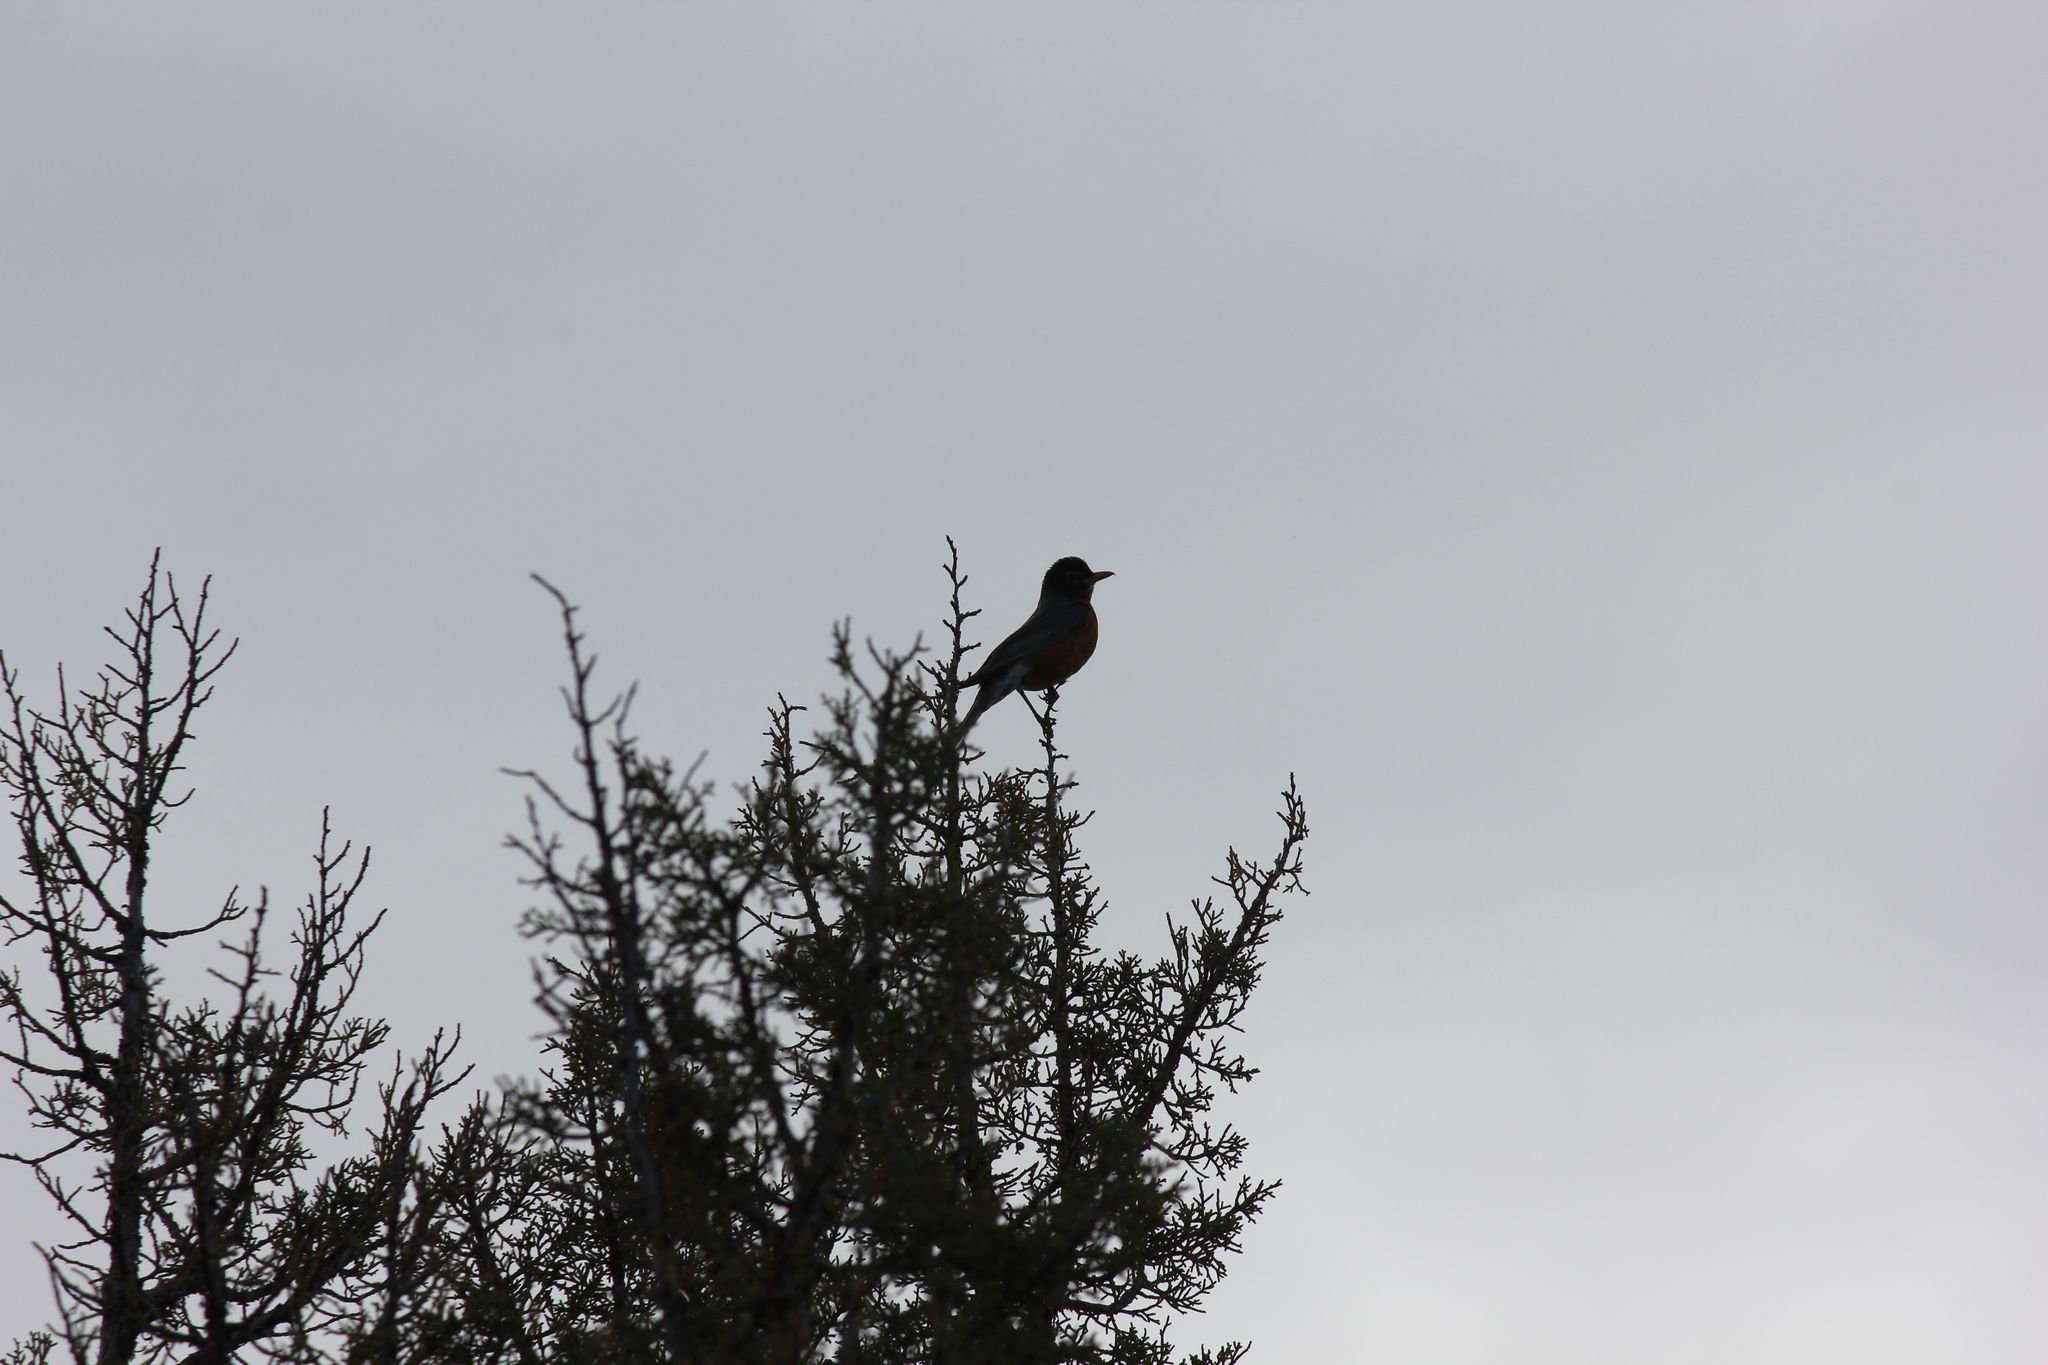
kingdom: Animalia
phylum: Chordata
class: Aves
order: Passeriformes
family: Turdidae
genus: Turdus
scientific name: Turdus migratorius
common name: American robin
